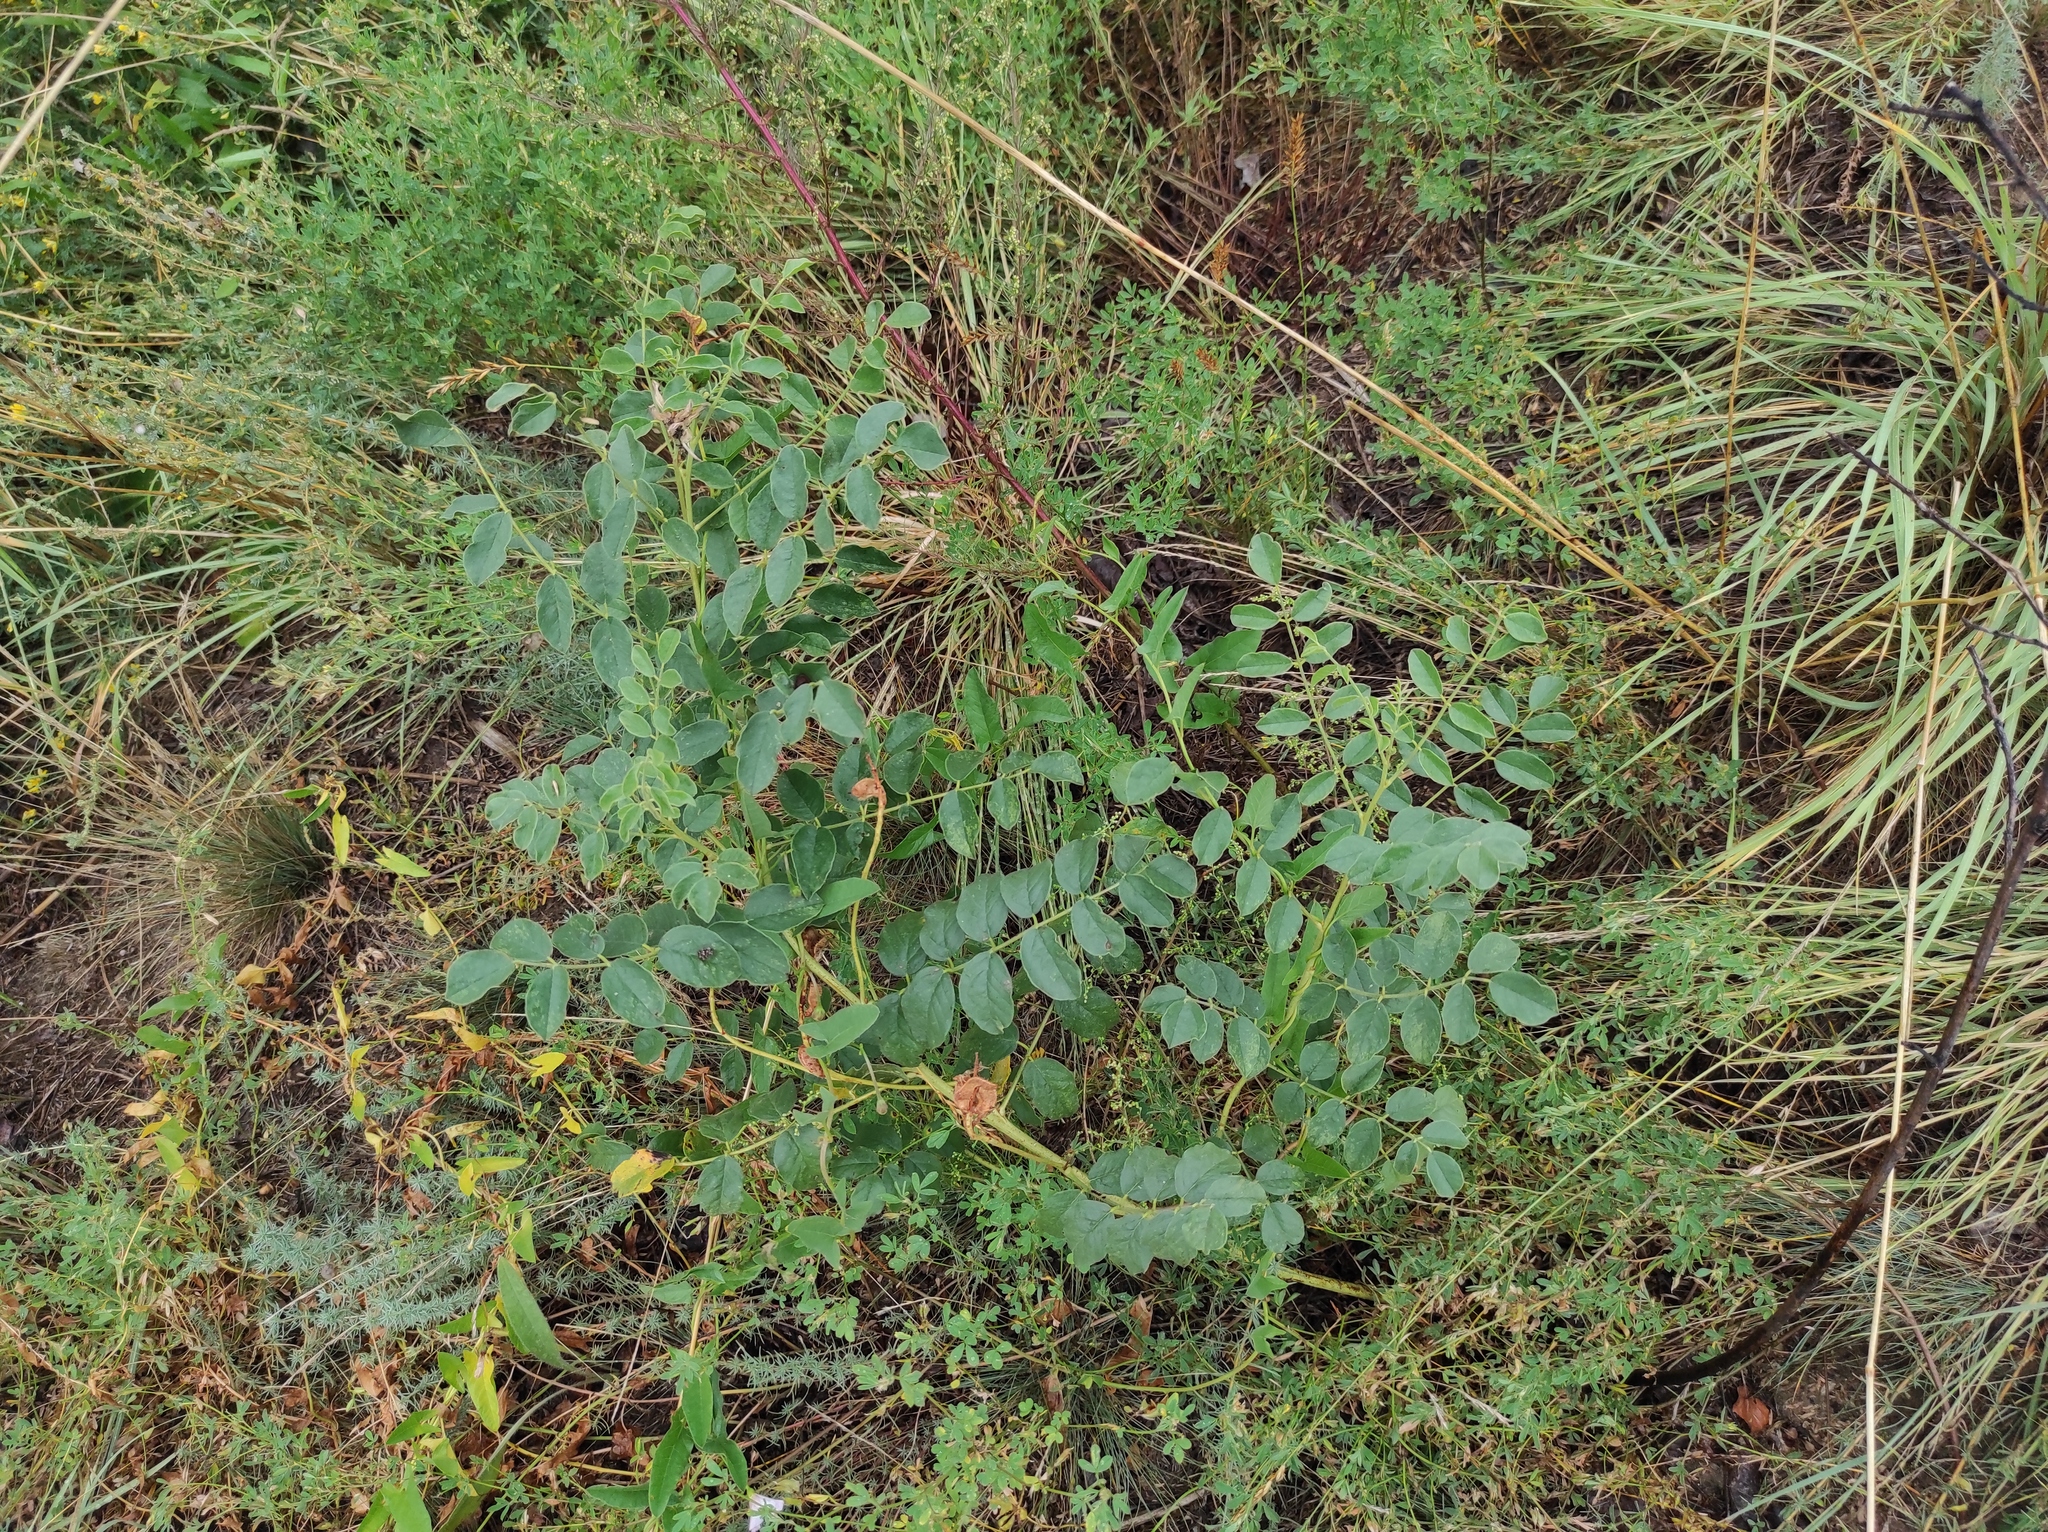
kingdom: Plantae
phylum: Tracheophyta
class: Magnoliopsida
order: Fabales
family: Fabaceae
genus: Glycyrrhiza
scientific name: Glycyrrhiza uralensis
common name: Chinese licorice
